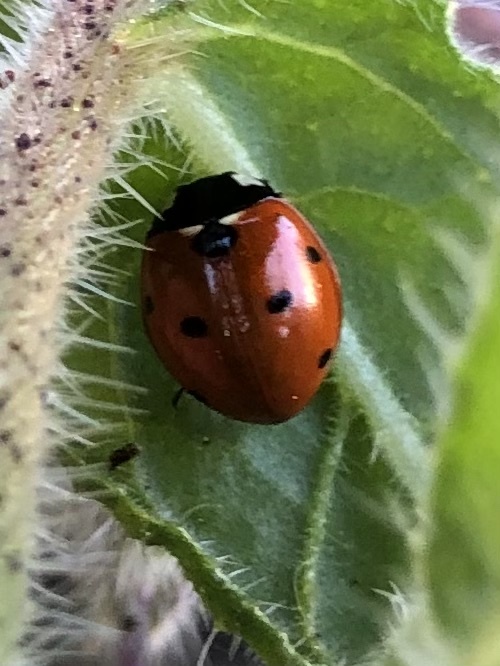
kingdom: Animalia
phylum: Arthropoda
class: Insecta
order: Coleoptera
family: Coccinellidae
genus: Coccinella
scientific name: Coccinella septempunctata
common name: Sevenspotted lady beetle
